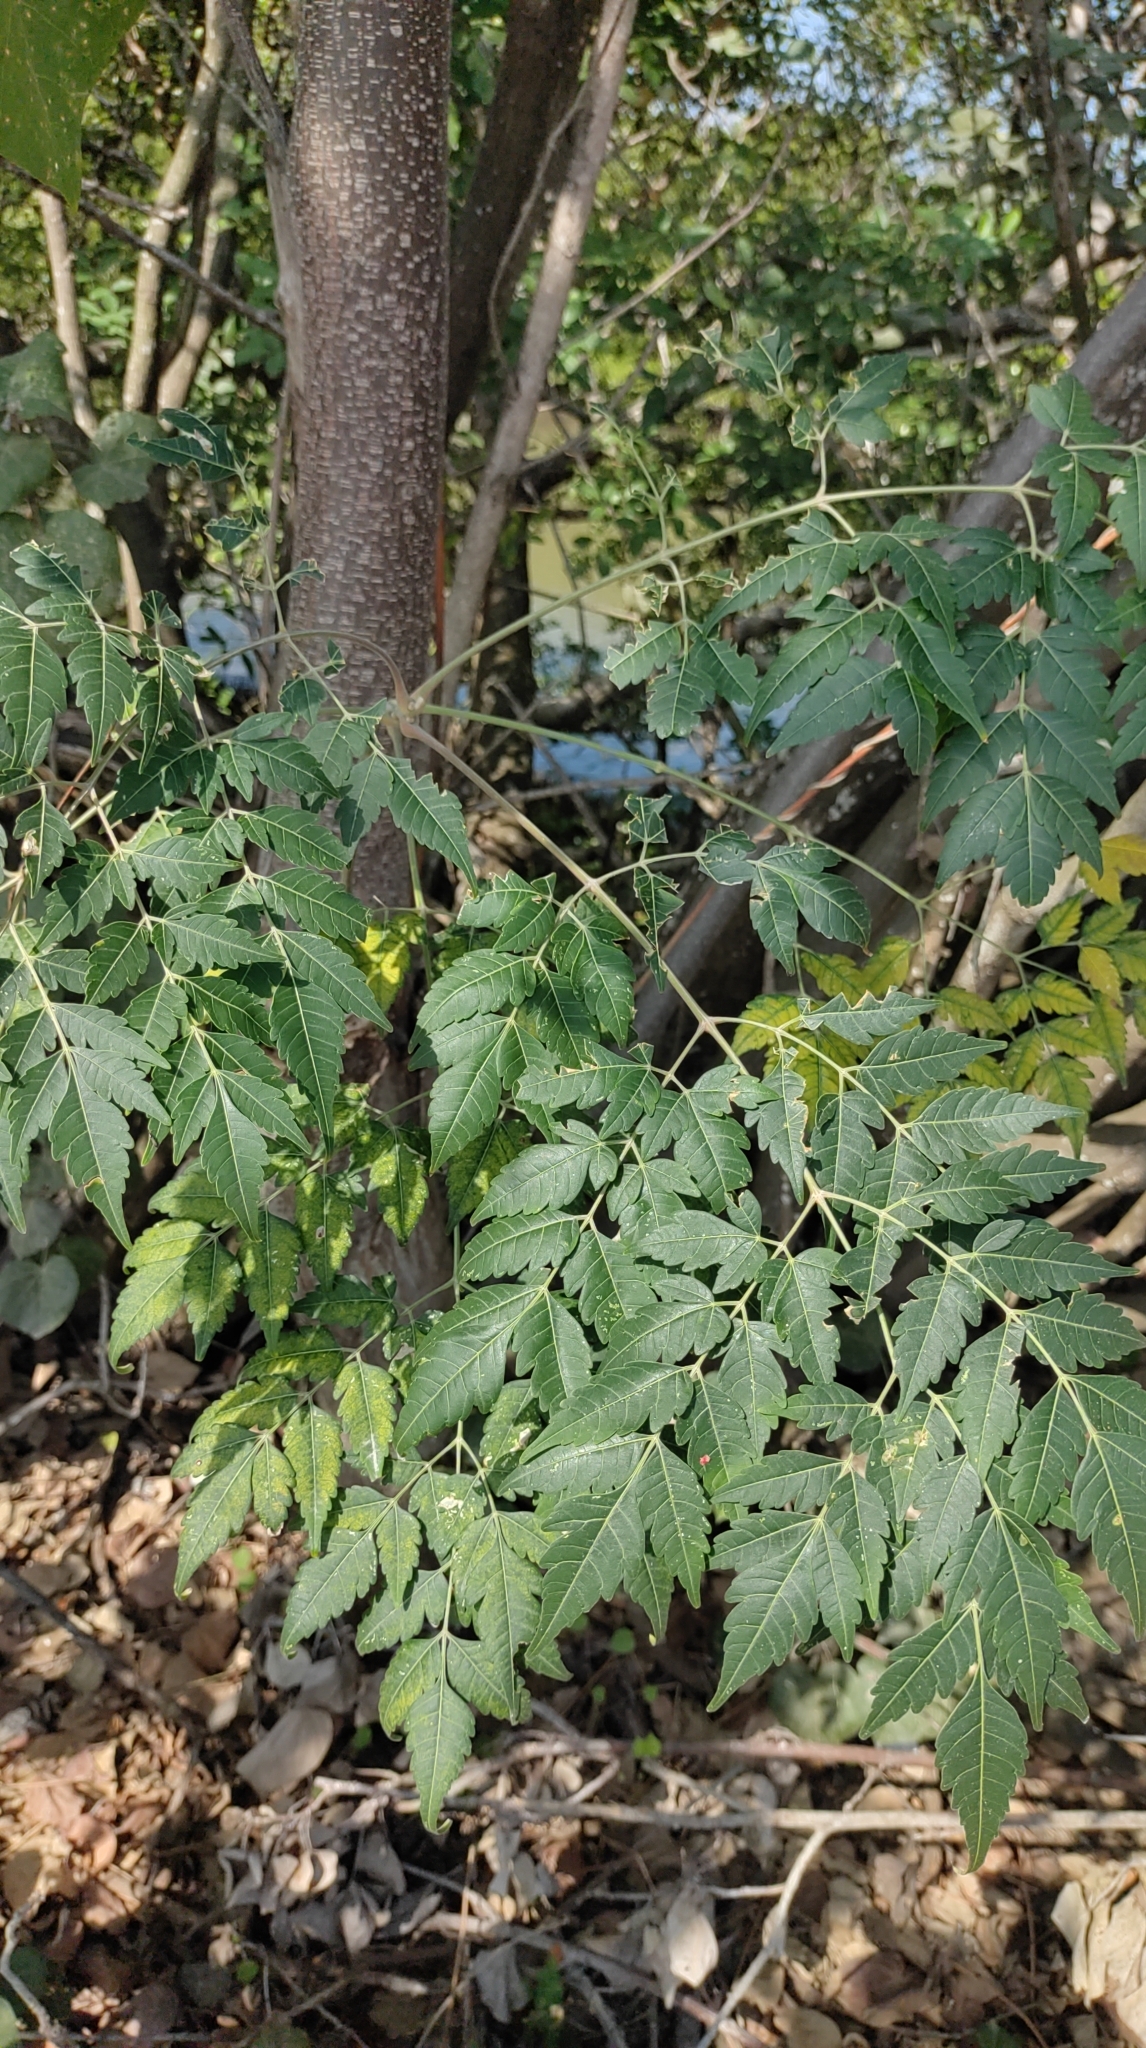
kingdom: Plantae
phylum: Tracheophyta
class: Magnoliopsida
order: Sapindales
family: Sapindaceae
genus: Koelreuteria
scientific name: Koelreuteria elegans
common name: Chinese flame tree
